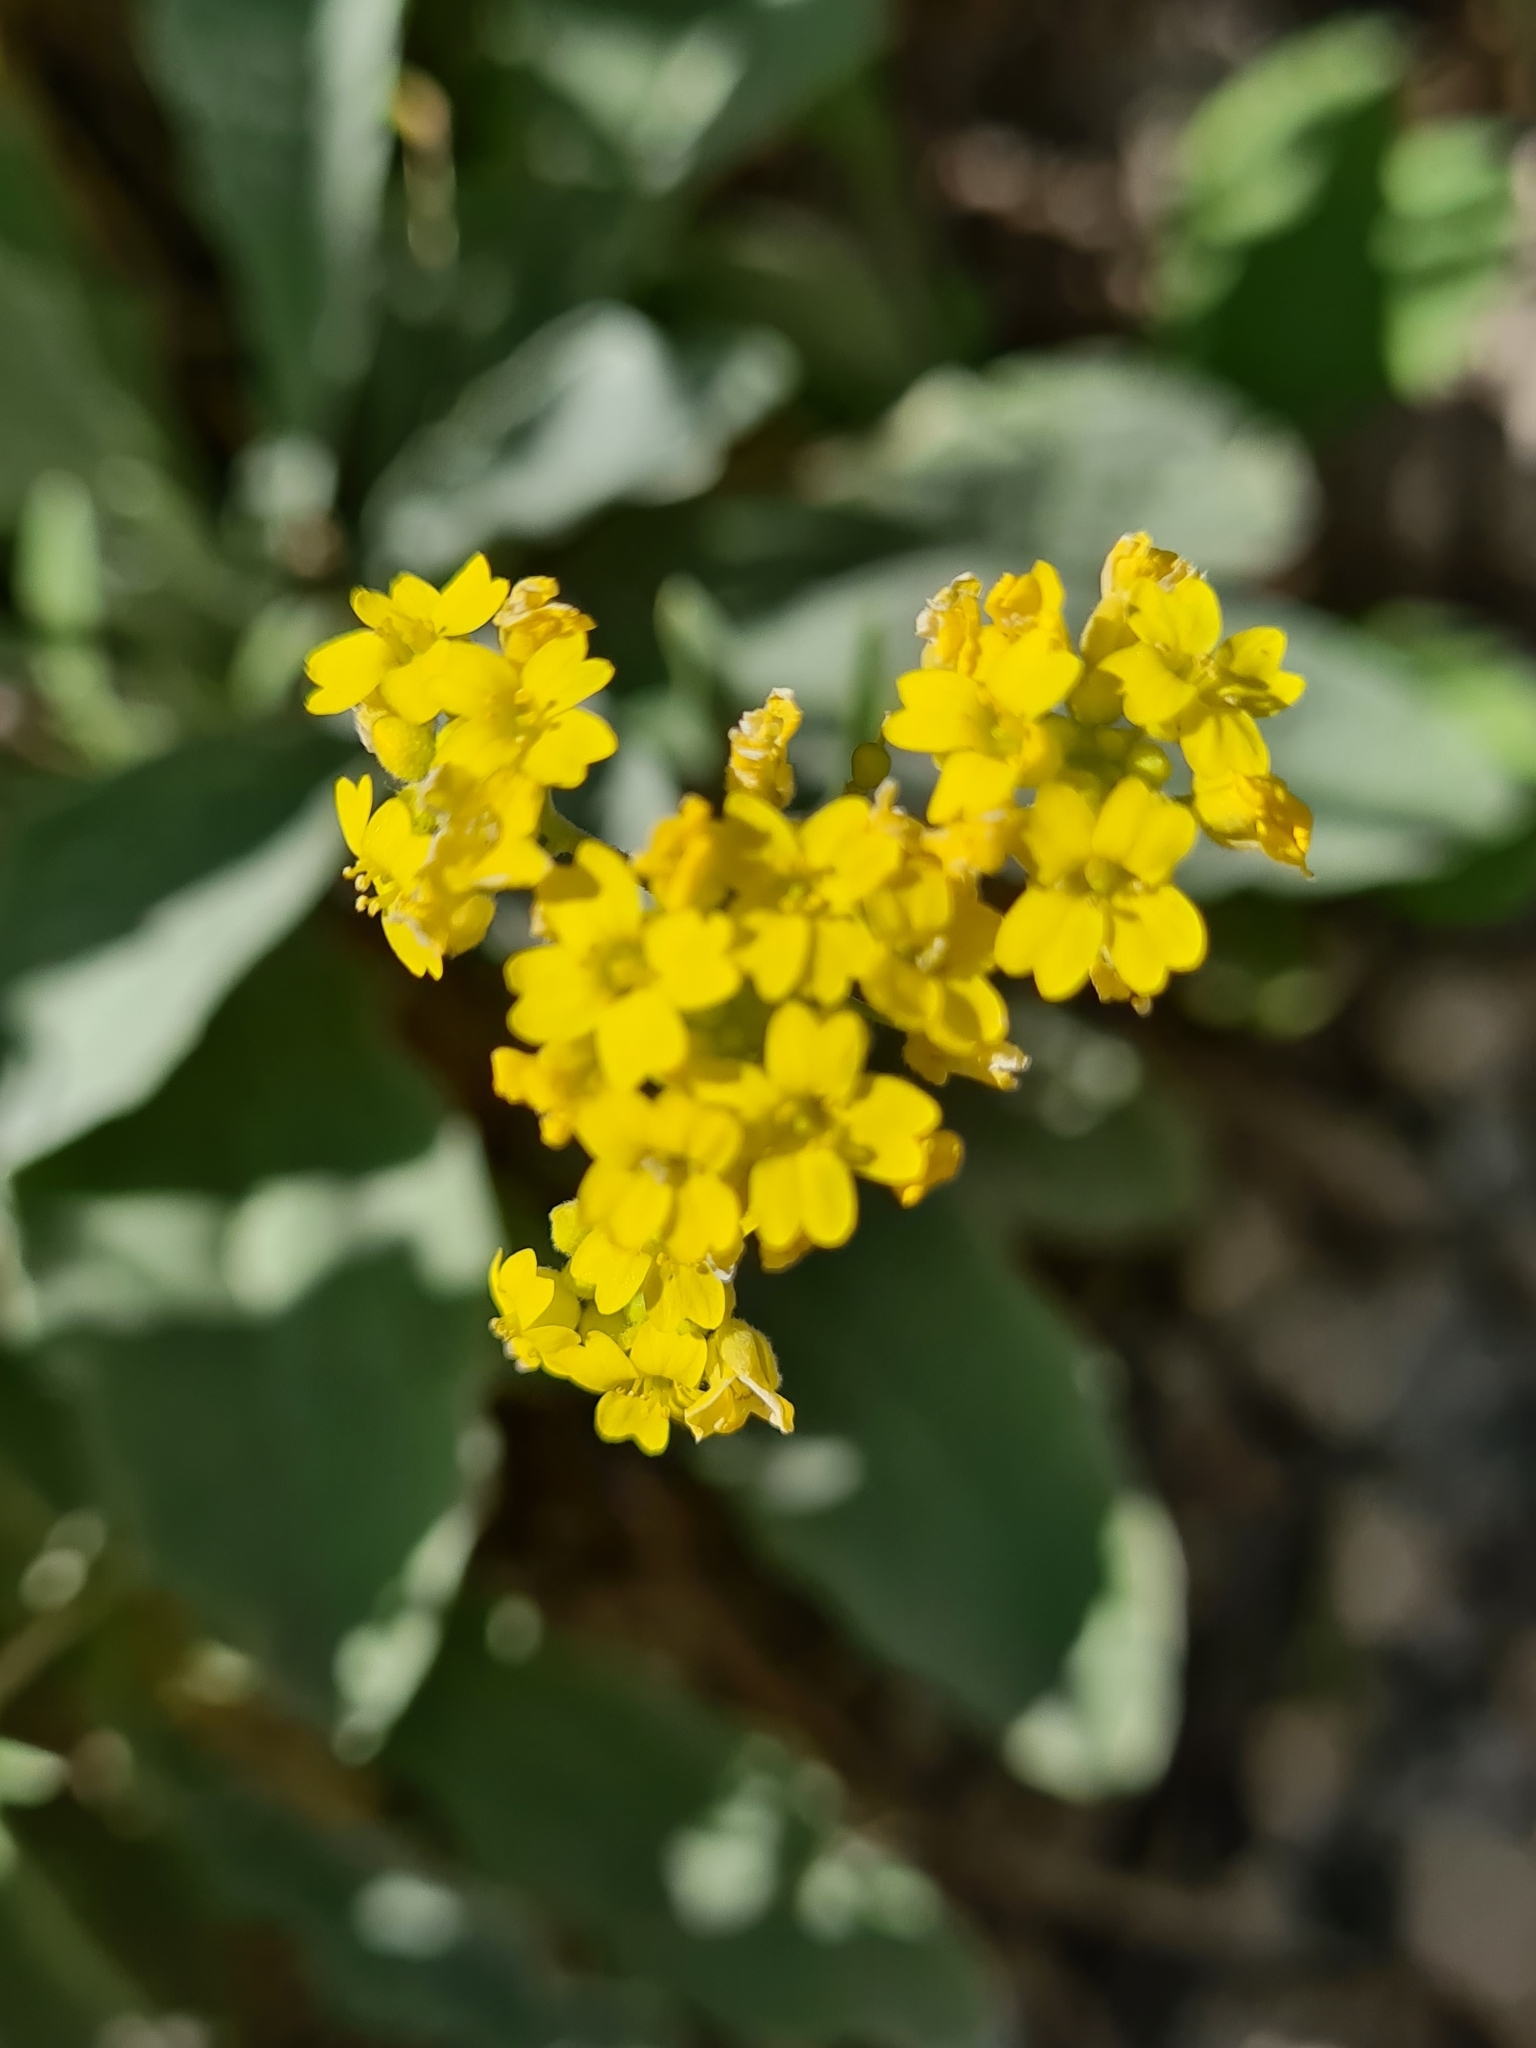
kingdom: Plantae
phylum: Tracheophyta
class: Magnoliopsida
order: Brassicales
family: Brassicaceae
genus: Aurinia
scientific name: Aurinia saxatilis
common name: Golden-tuft alyssum
